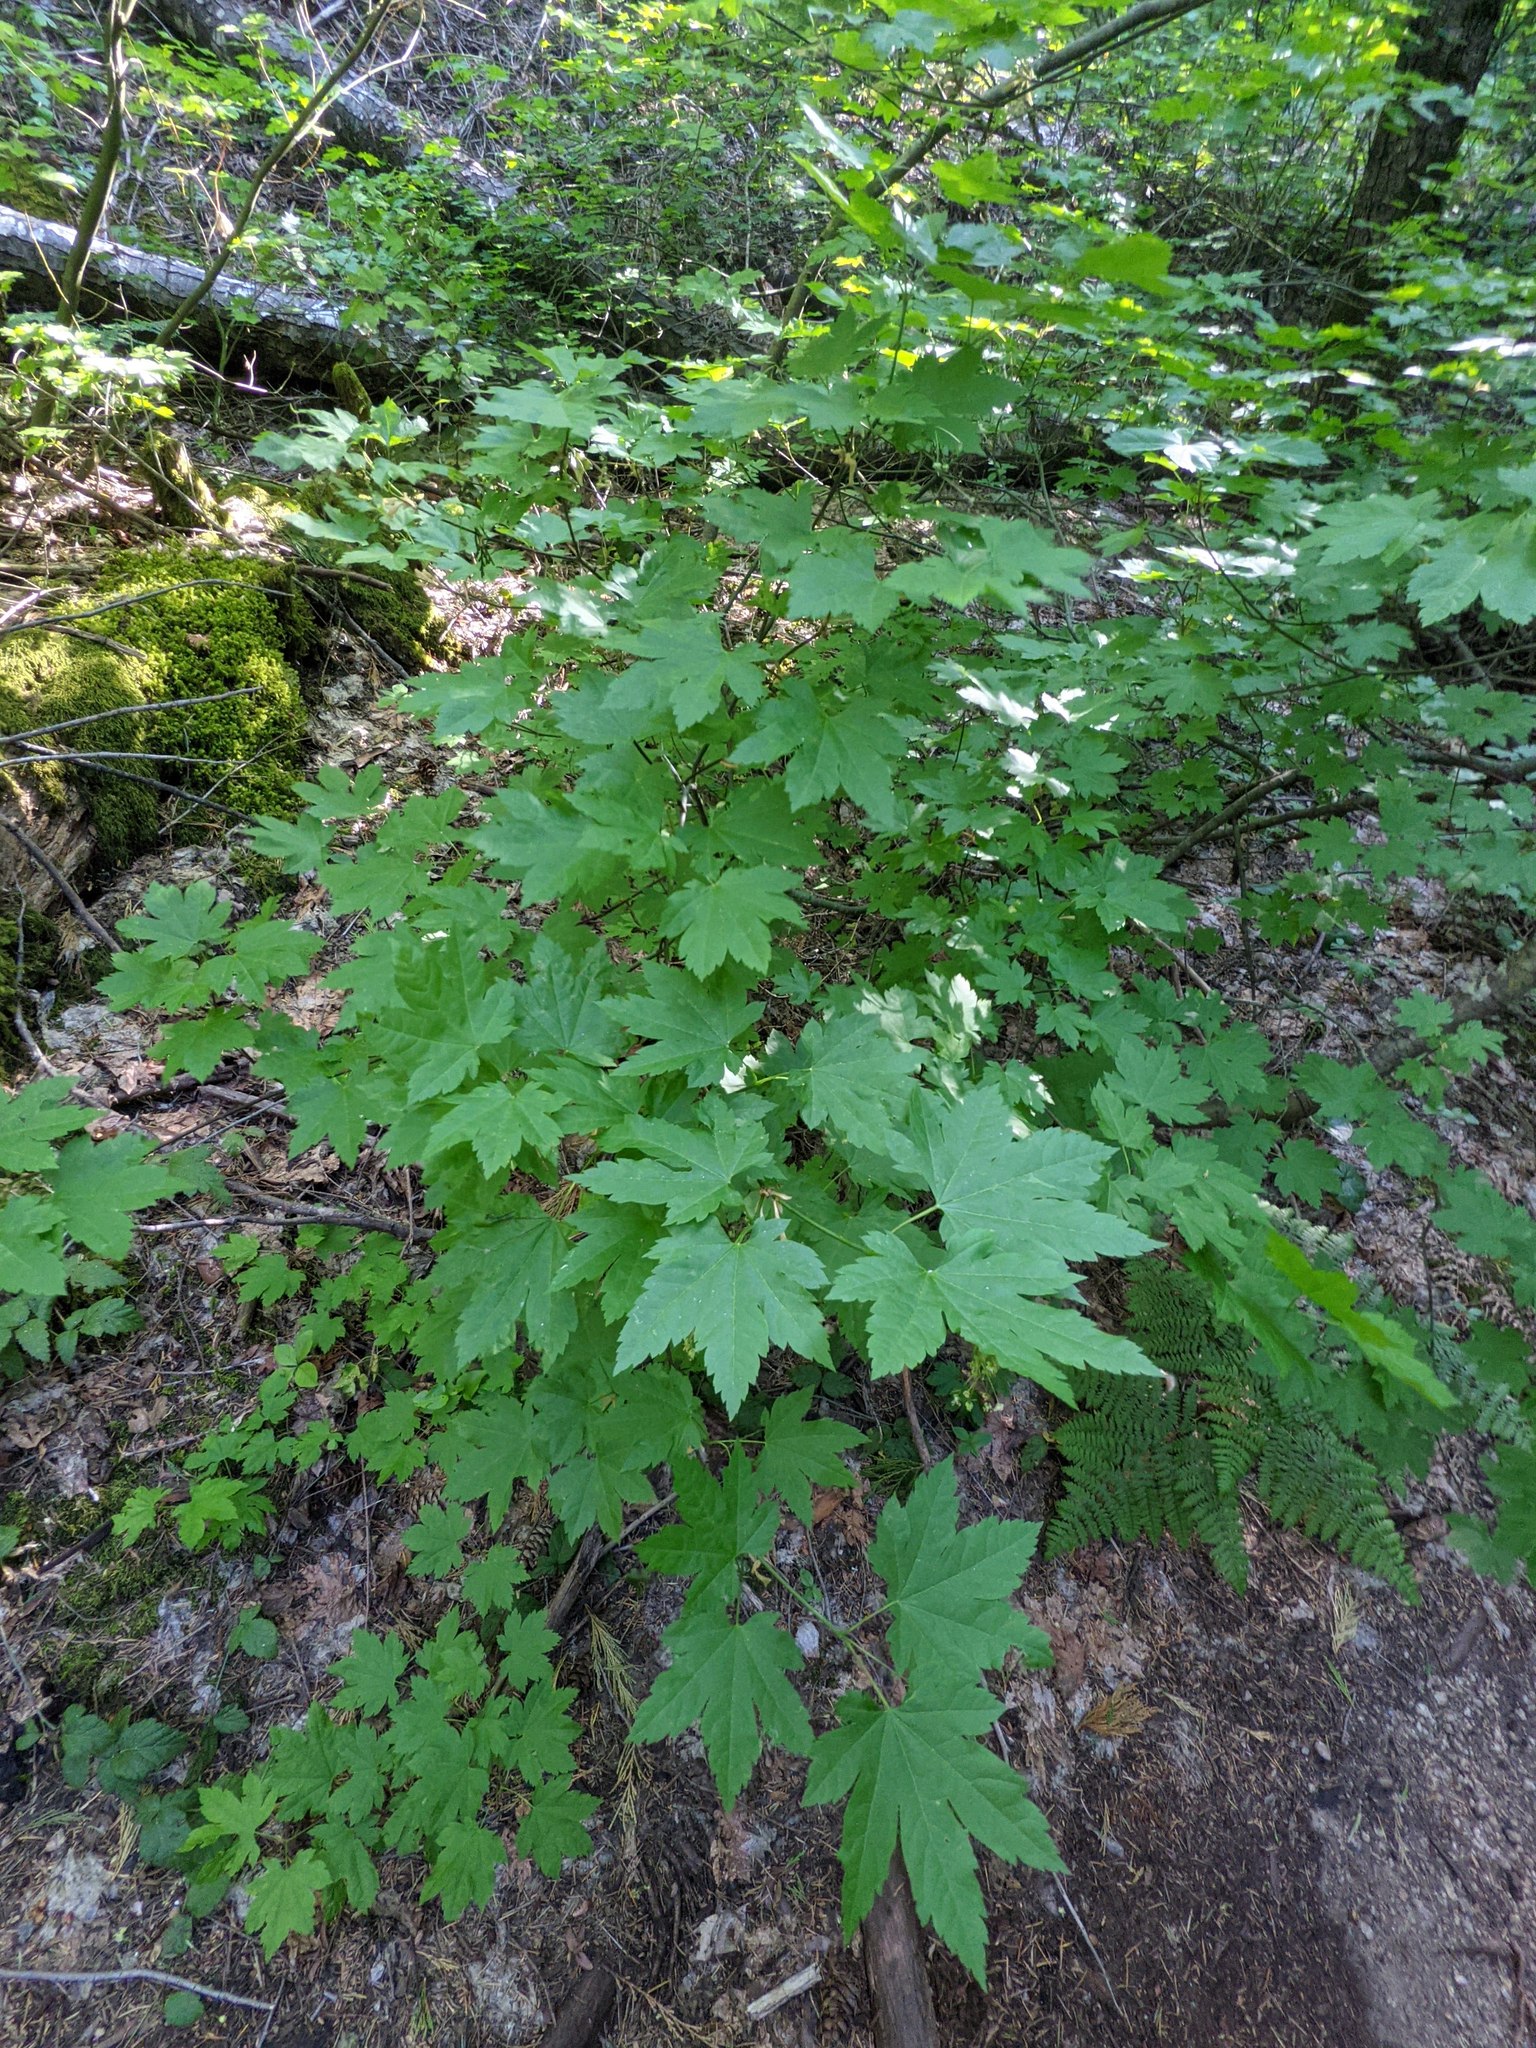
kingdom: Plantae
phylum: Tracheophyta
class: Magnoliopsida
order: Sapindales
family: Sapindaceae
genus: Acer
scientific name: Acer circinatum
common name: Vine maple
